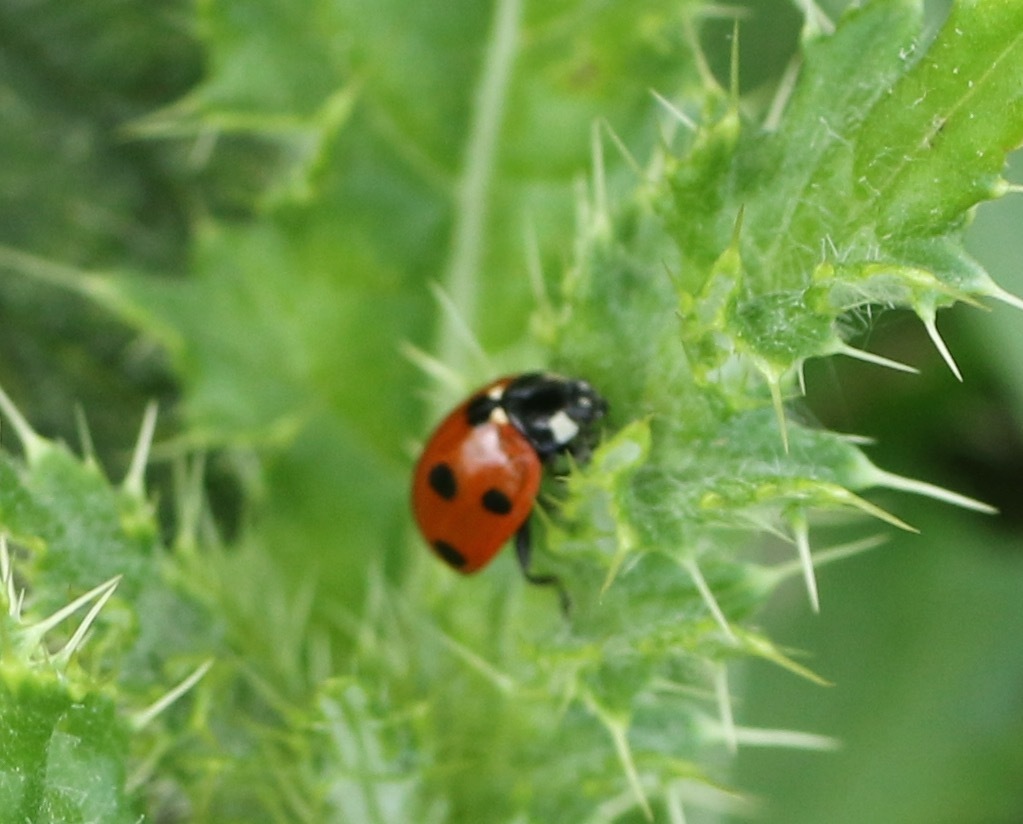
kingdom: Animalia
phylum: Arthropoda
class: Insecta
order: Coleoptera
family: Coccinellidae
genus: Coccinella
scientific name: Coccinella septempunctata
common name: Sevenspotted lady beetle
